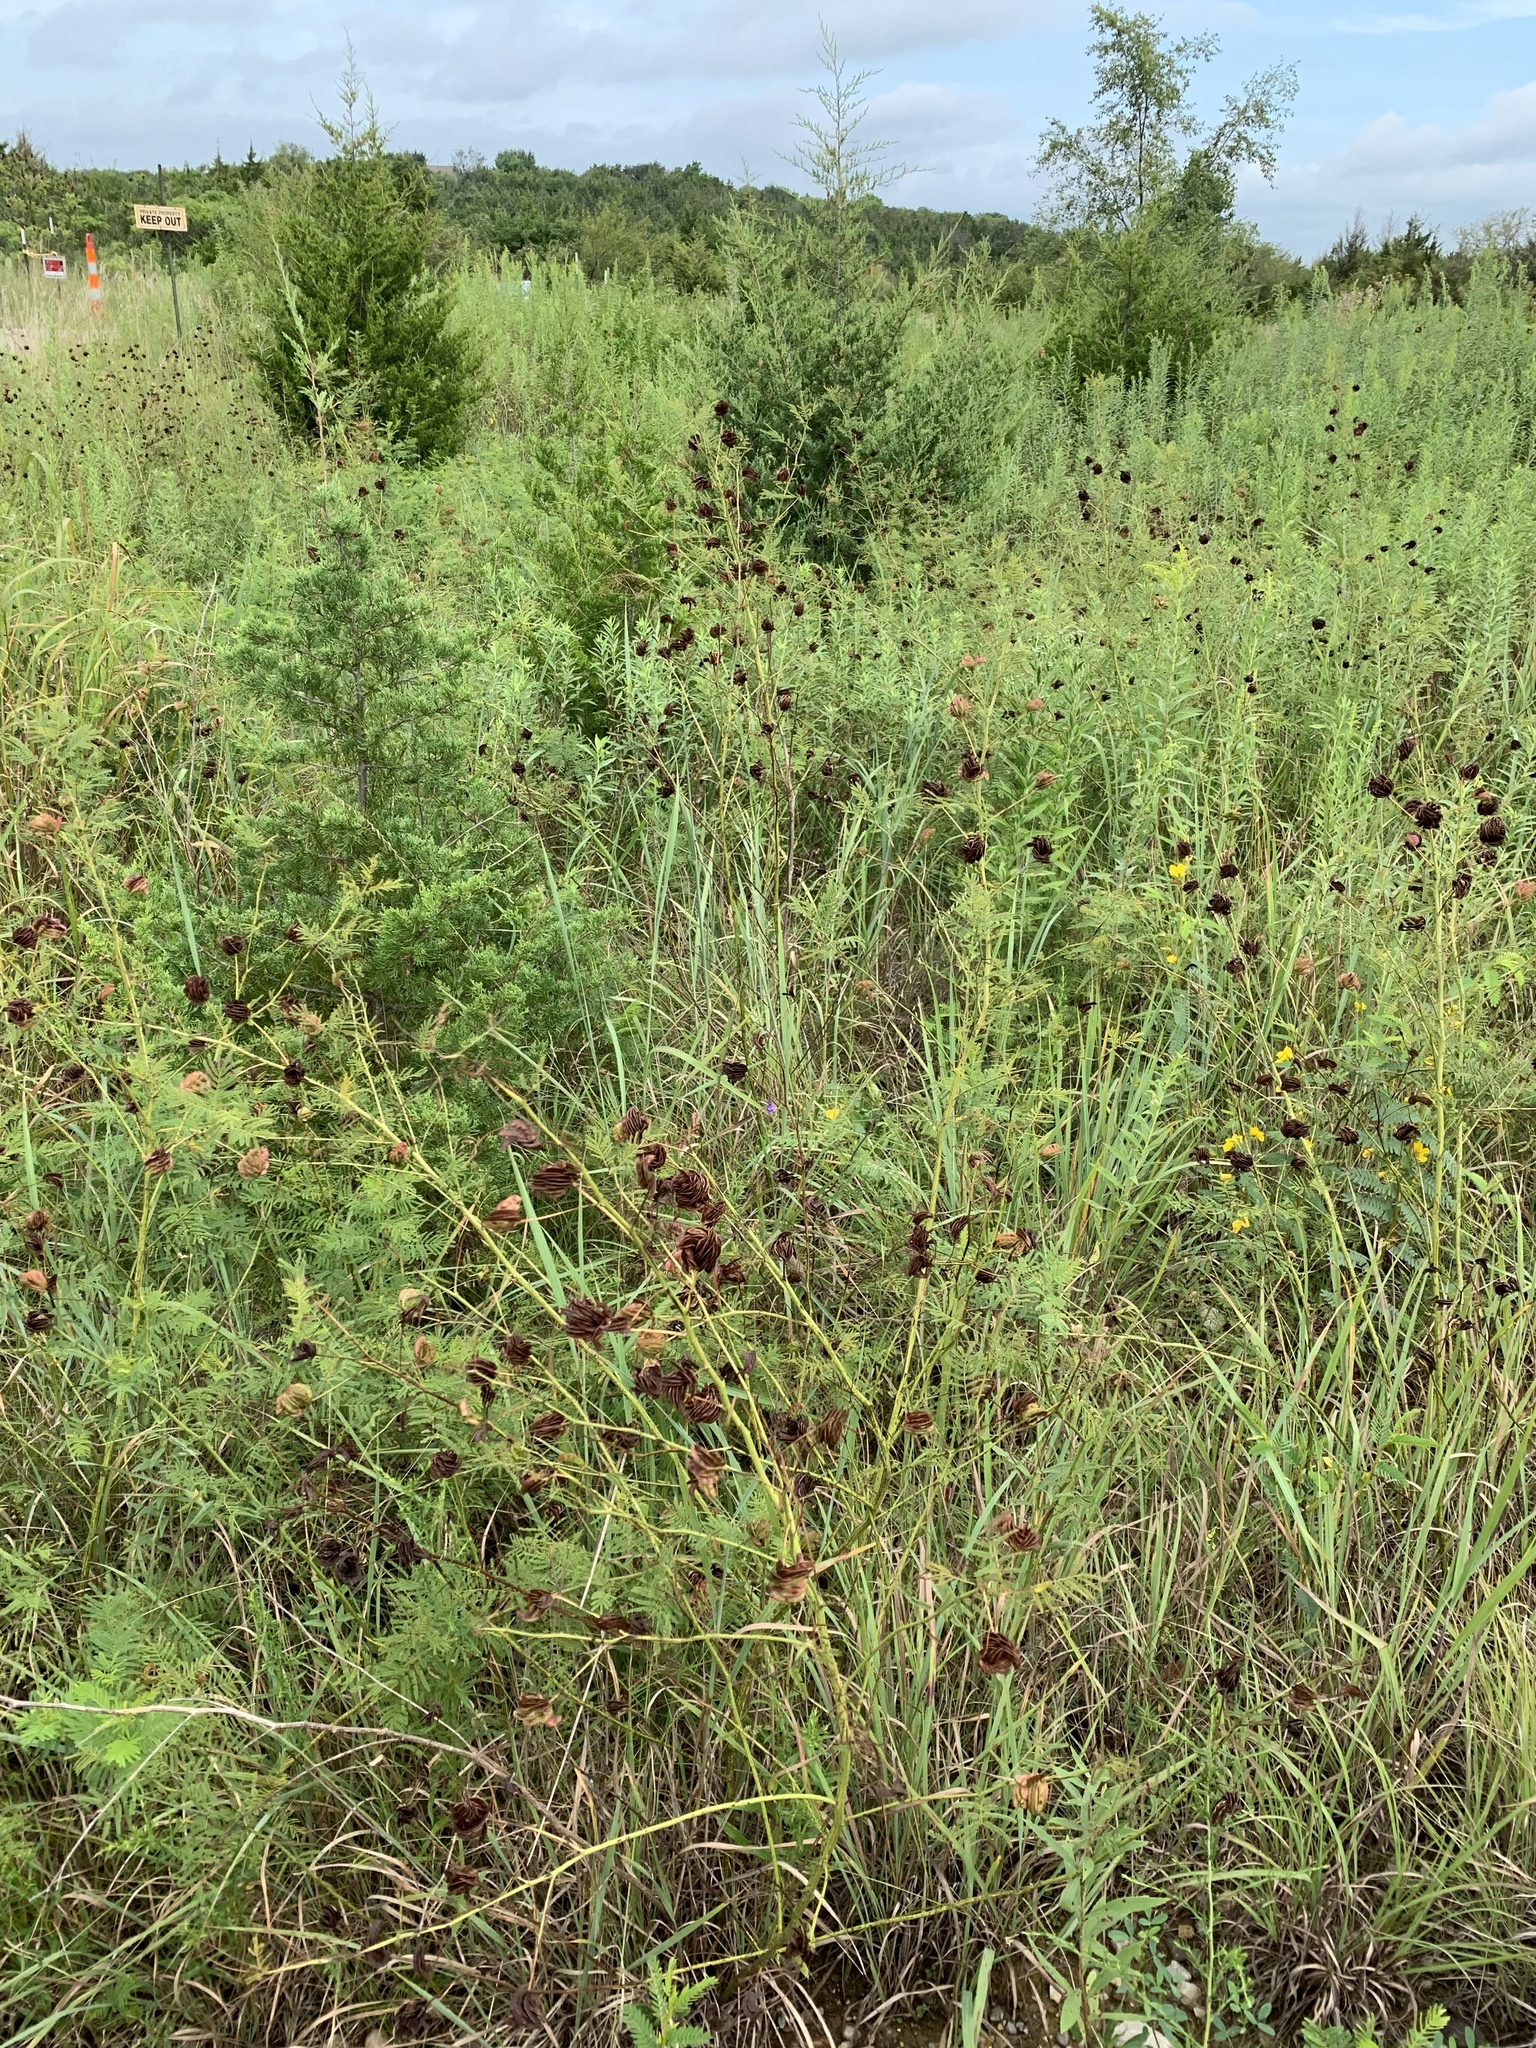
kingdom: Plantae
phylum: Tracheophyta
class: Magnoliopsida
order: Fabales
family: Fabaceae
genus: Desmanthus
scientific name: Desmanthus illinoensis
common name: Illinois bundle-flower
